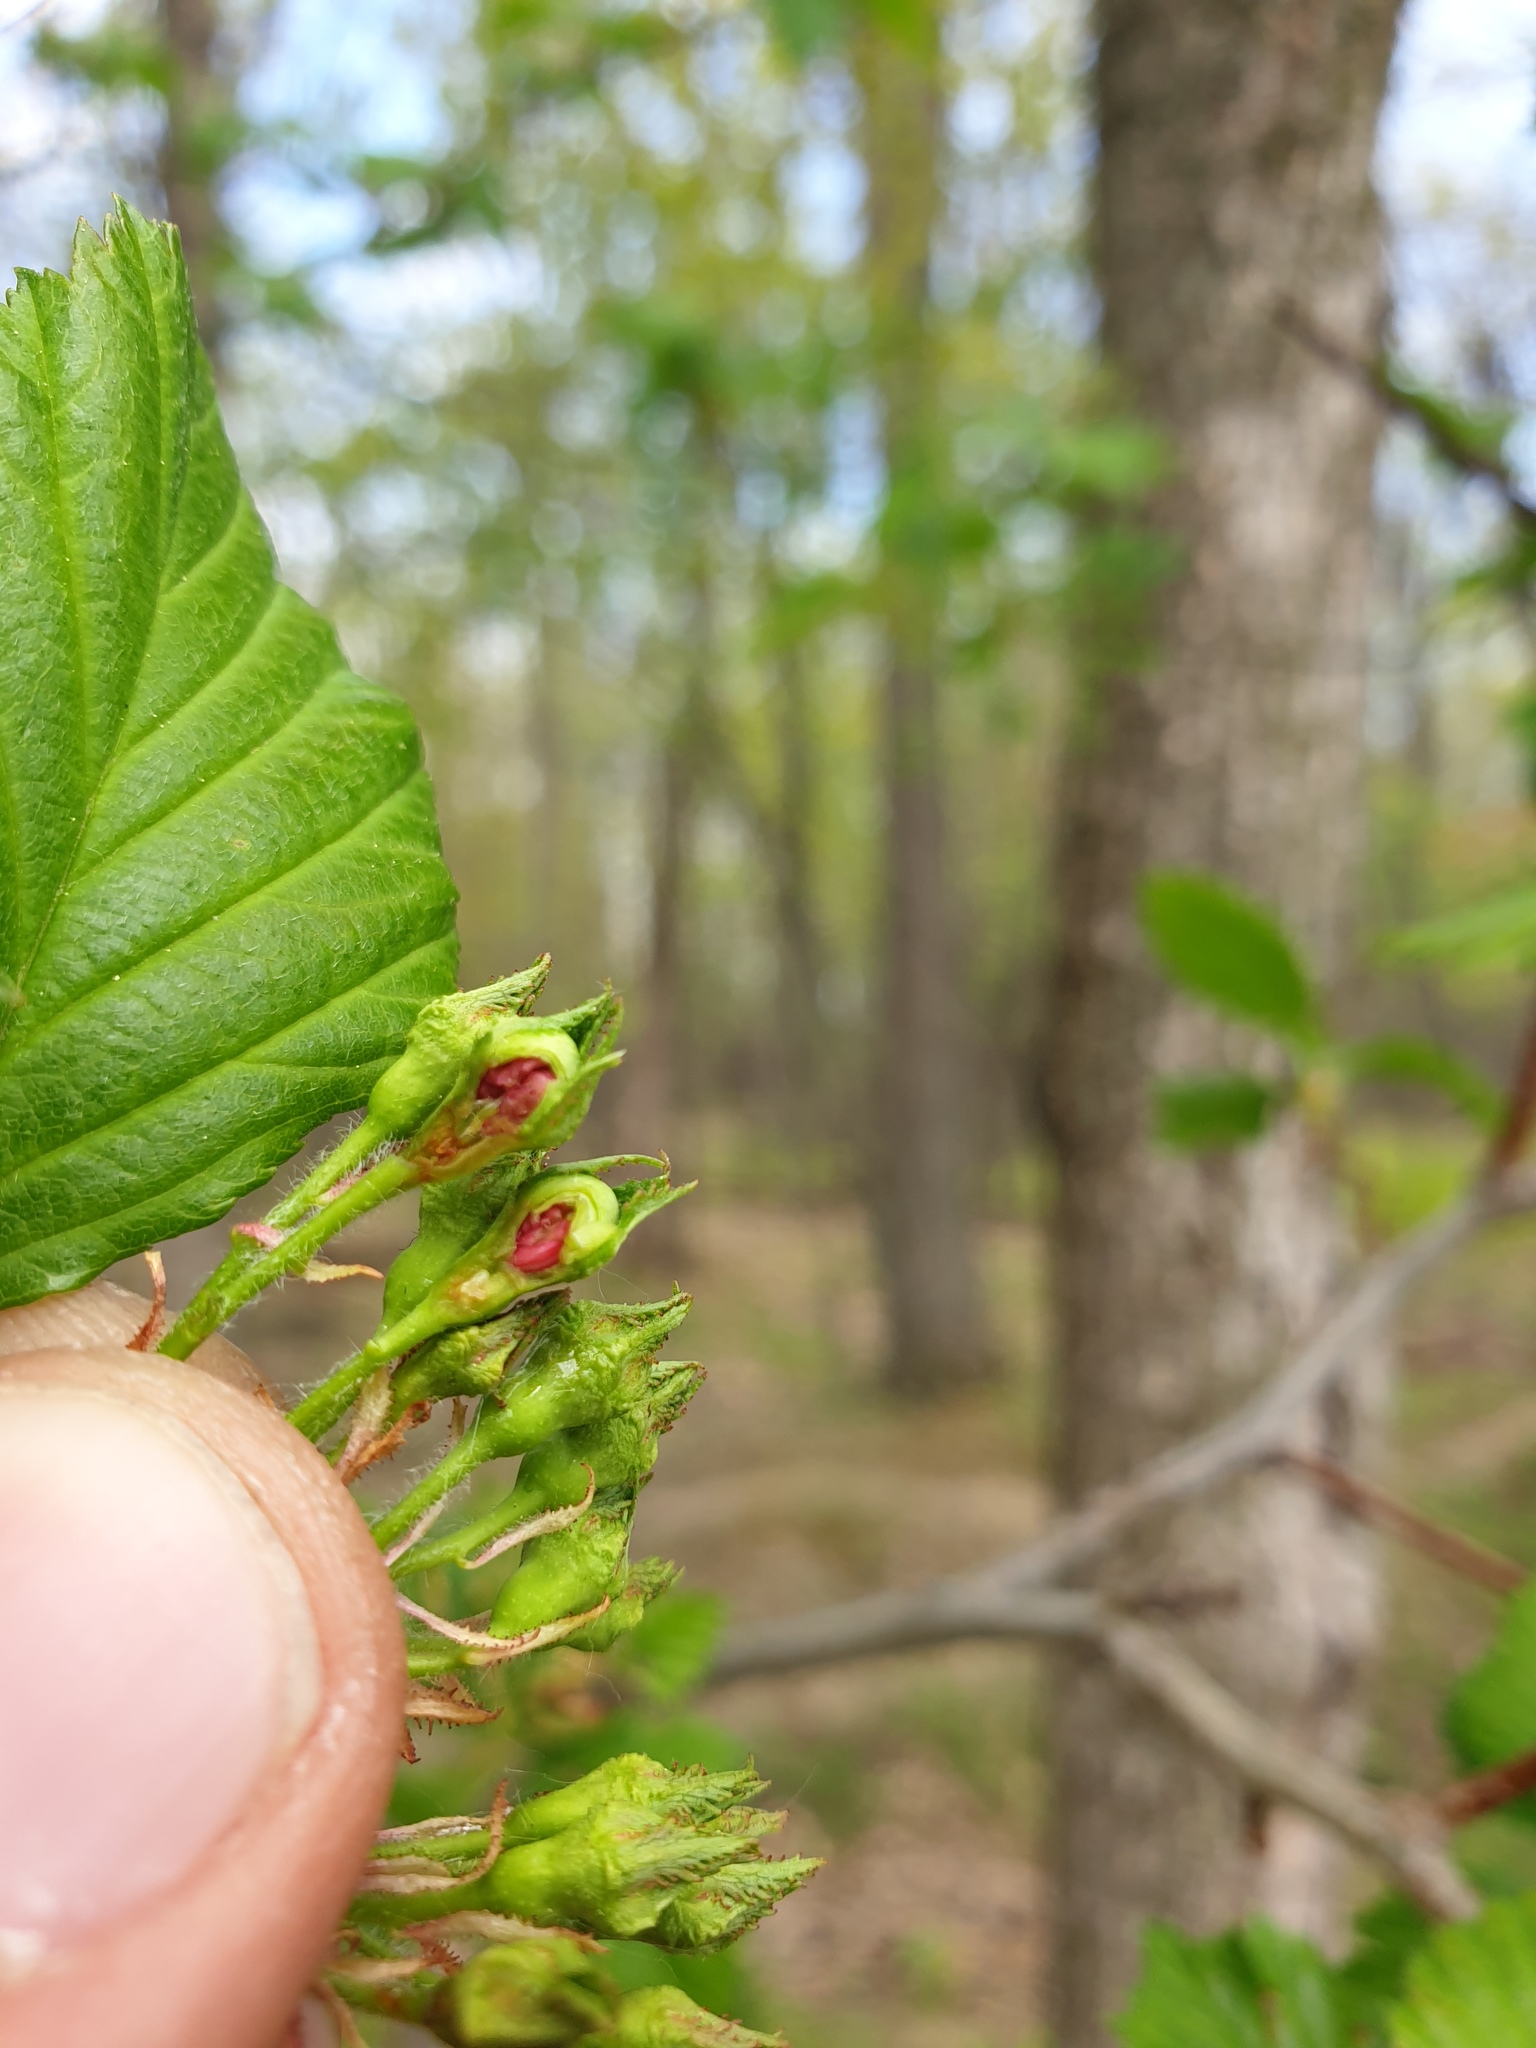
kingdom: Plantae
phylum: Tracheophyta
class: Magnoliopsida
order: Rosales
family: Rosaceae
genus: Crataegus
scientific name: Crataegus macracantha
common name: Large-thorn hawthorn
